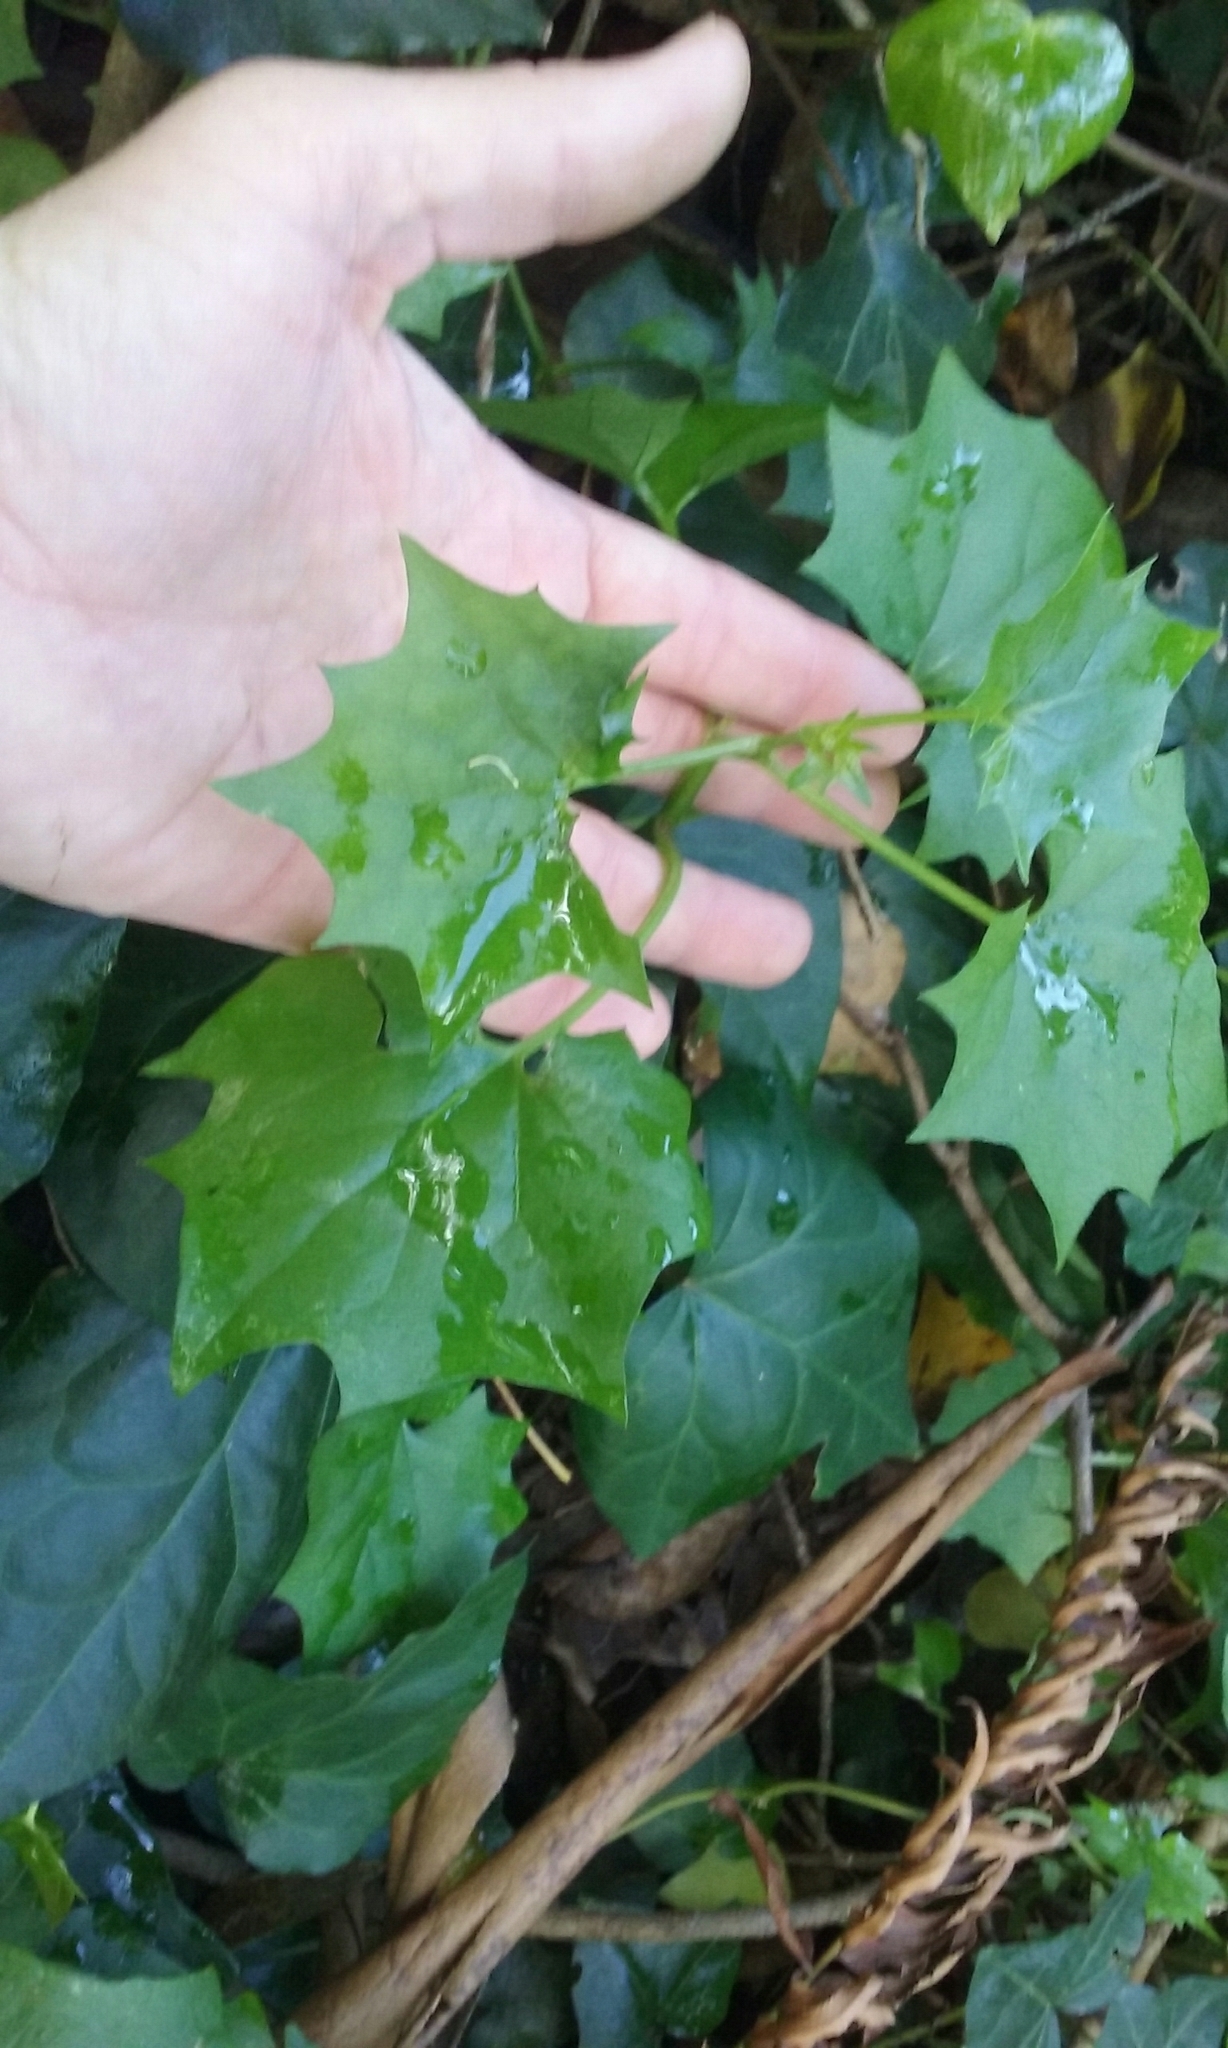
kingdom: Plantae
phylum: Tracheophyta
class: Magnoliopsida
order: Asterales
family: Asteraceae
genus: Delairea
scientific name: Delairea odorata
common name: Cape-ivy
